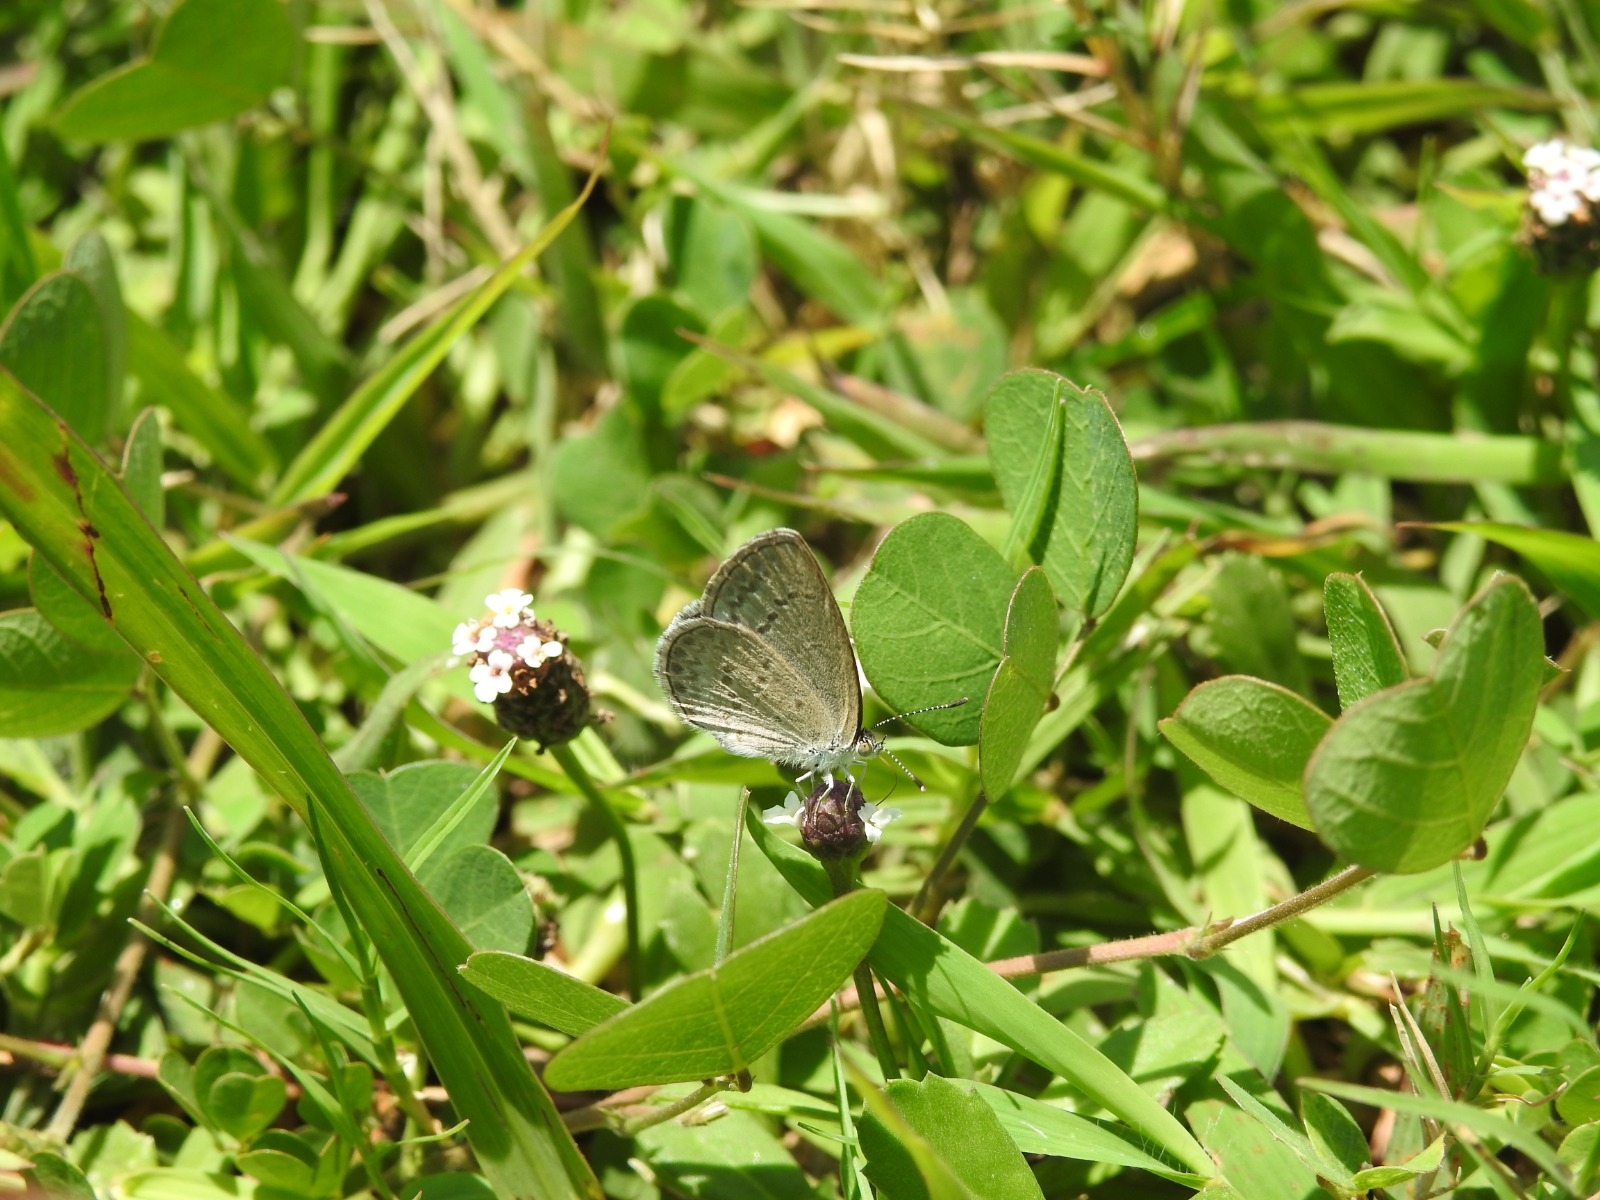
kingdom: Animalia
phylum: Arthropoda
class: Insecta
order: Lepidoptera
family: Lycaenidae
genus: Zizina
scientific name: Zizina otis
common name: Lesser grass blue
